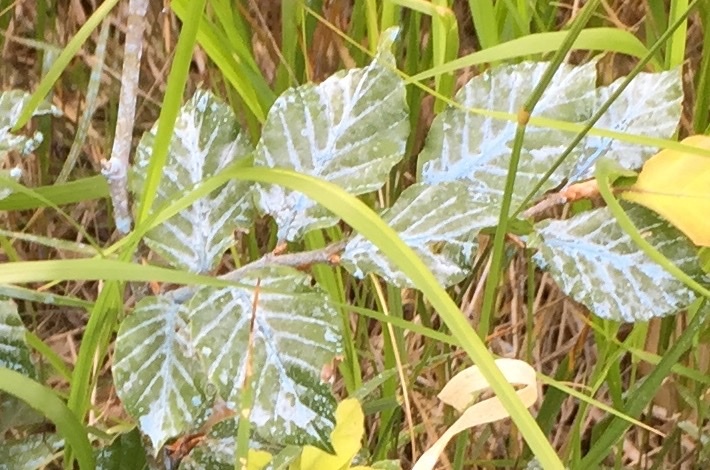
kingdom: Plantae
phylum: Tracheophyta
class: Magnoliopsida
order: Fagales
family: Fagaceae
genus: Fagus
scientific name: Fagus sylvatica
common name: Beech
